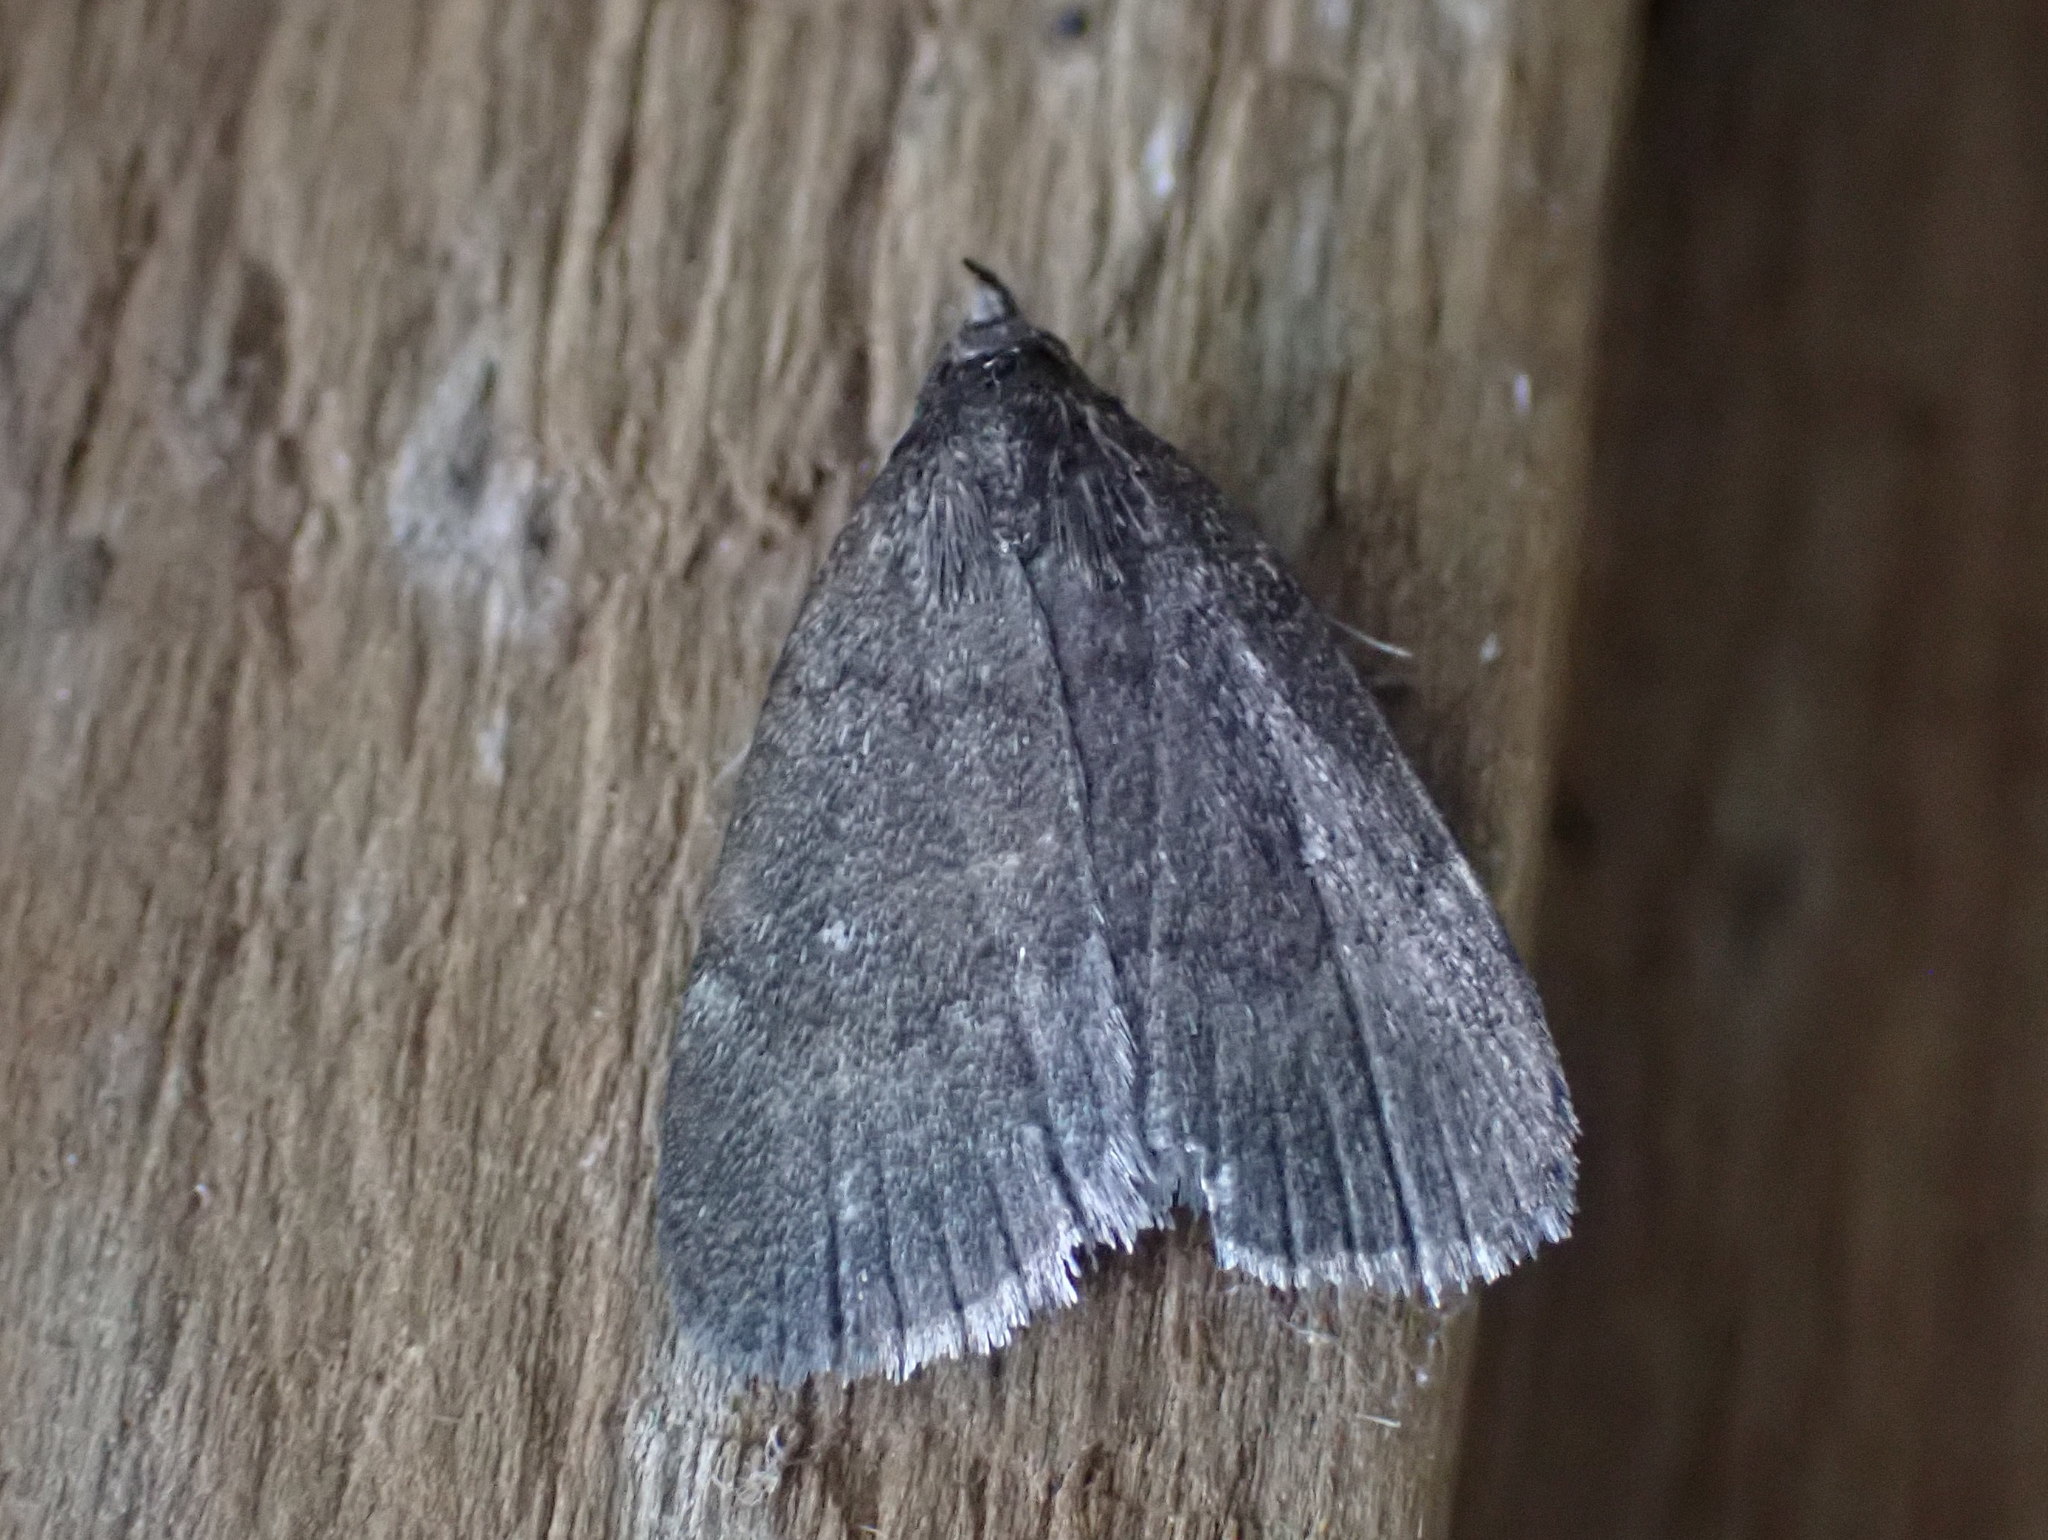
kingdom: Animalia
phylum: Arthropoda
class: Insecta
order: Lepidoptera
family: Erebidae
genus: Idia
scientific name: Idia rotundalis
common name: Rotund idia moth
